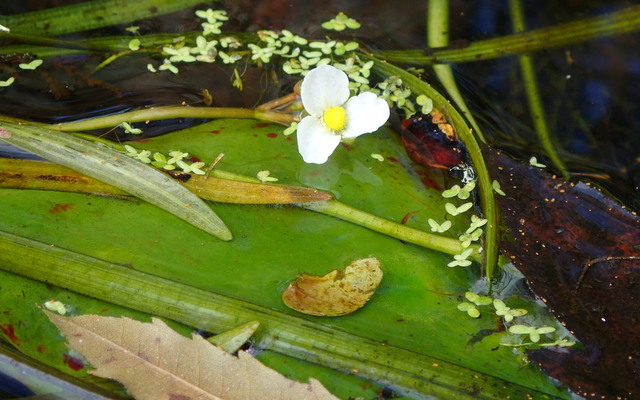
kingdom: Plantae
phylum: Tracheophyta
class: Liliopsida
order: Alismatales
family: Alismataceae
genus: Sagittaria
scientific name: Sagittaria kurziana
